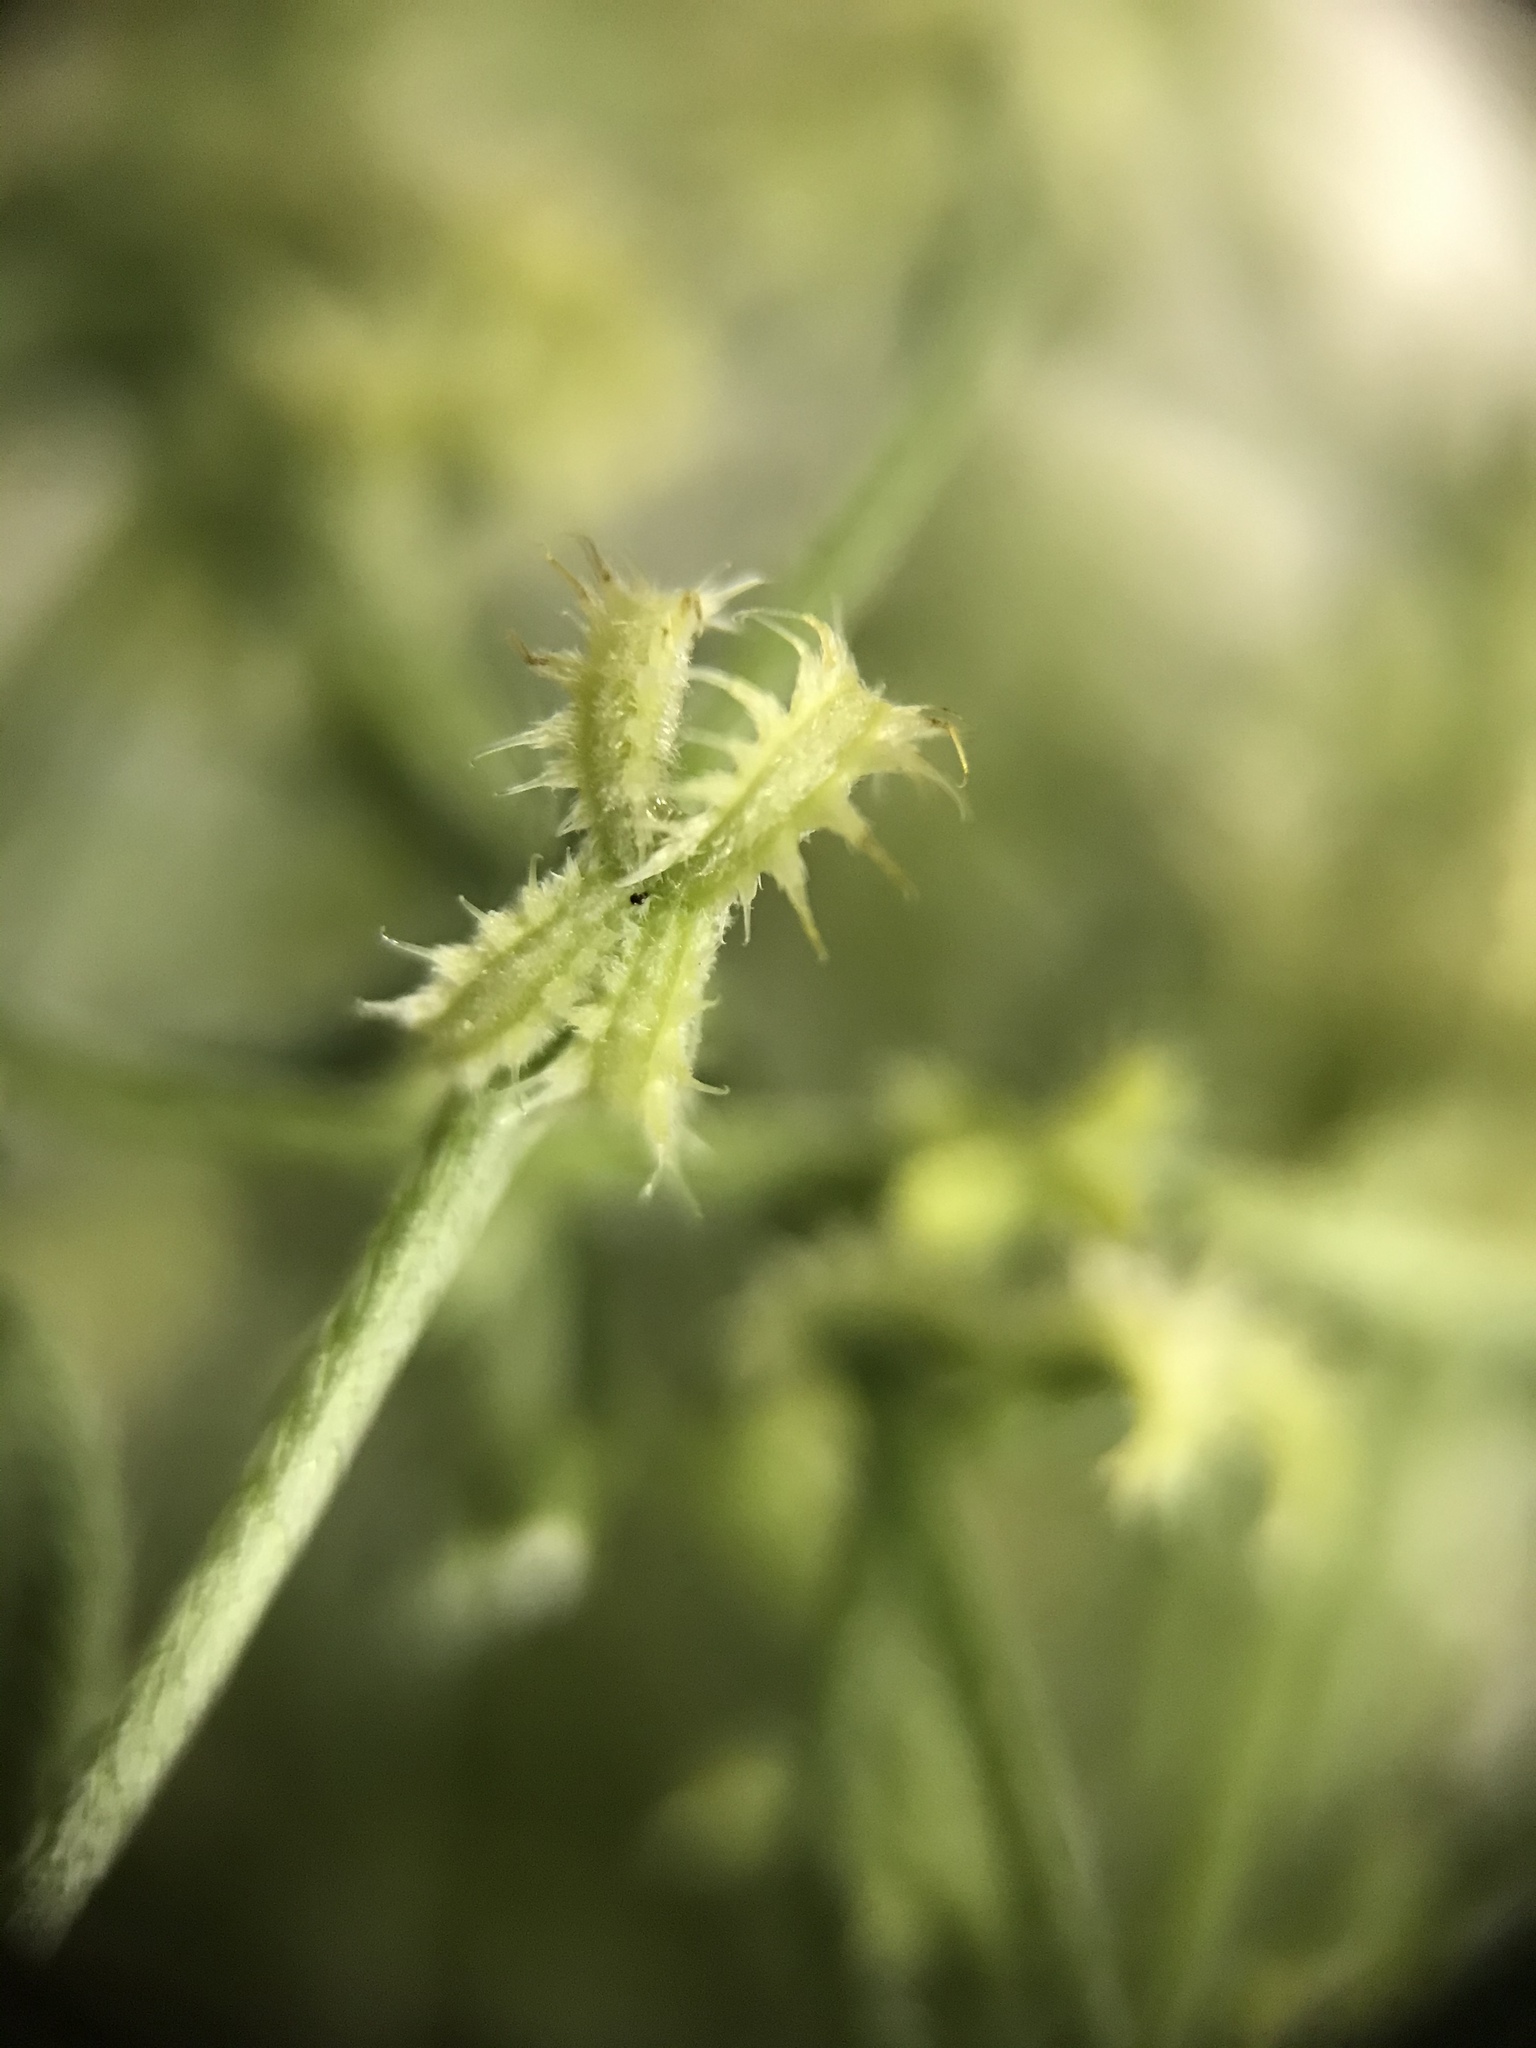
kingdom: Plantae
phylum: Tracheophyta
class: Magnoliopsida
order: Boraginales
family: Boraginaceae
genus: Pectocarya
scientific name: Pectocarya recurvata
